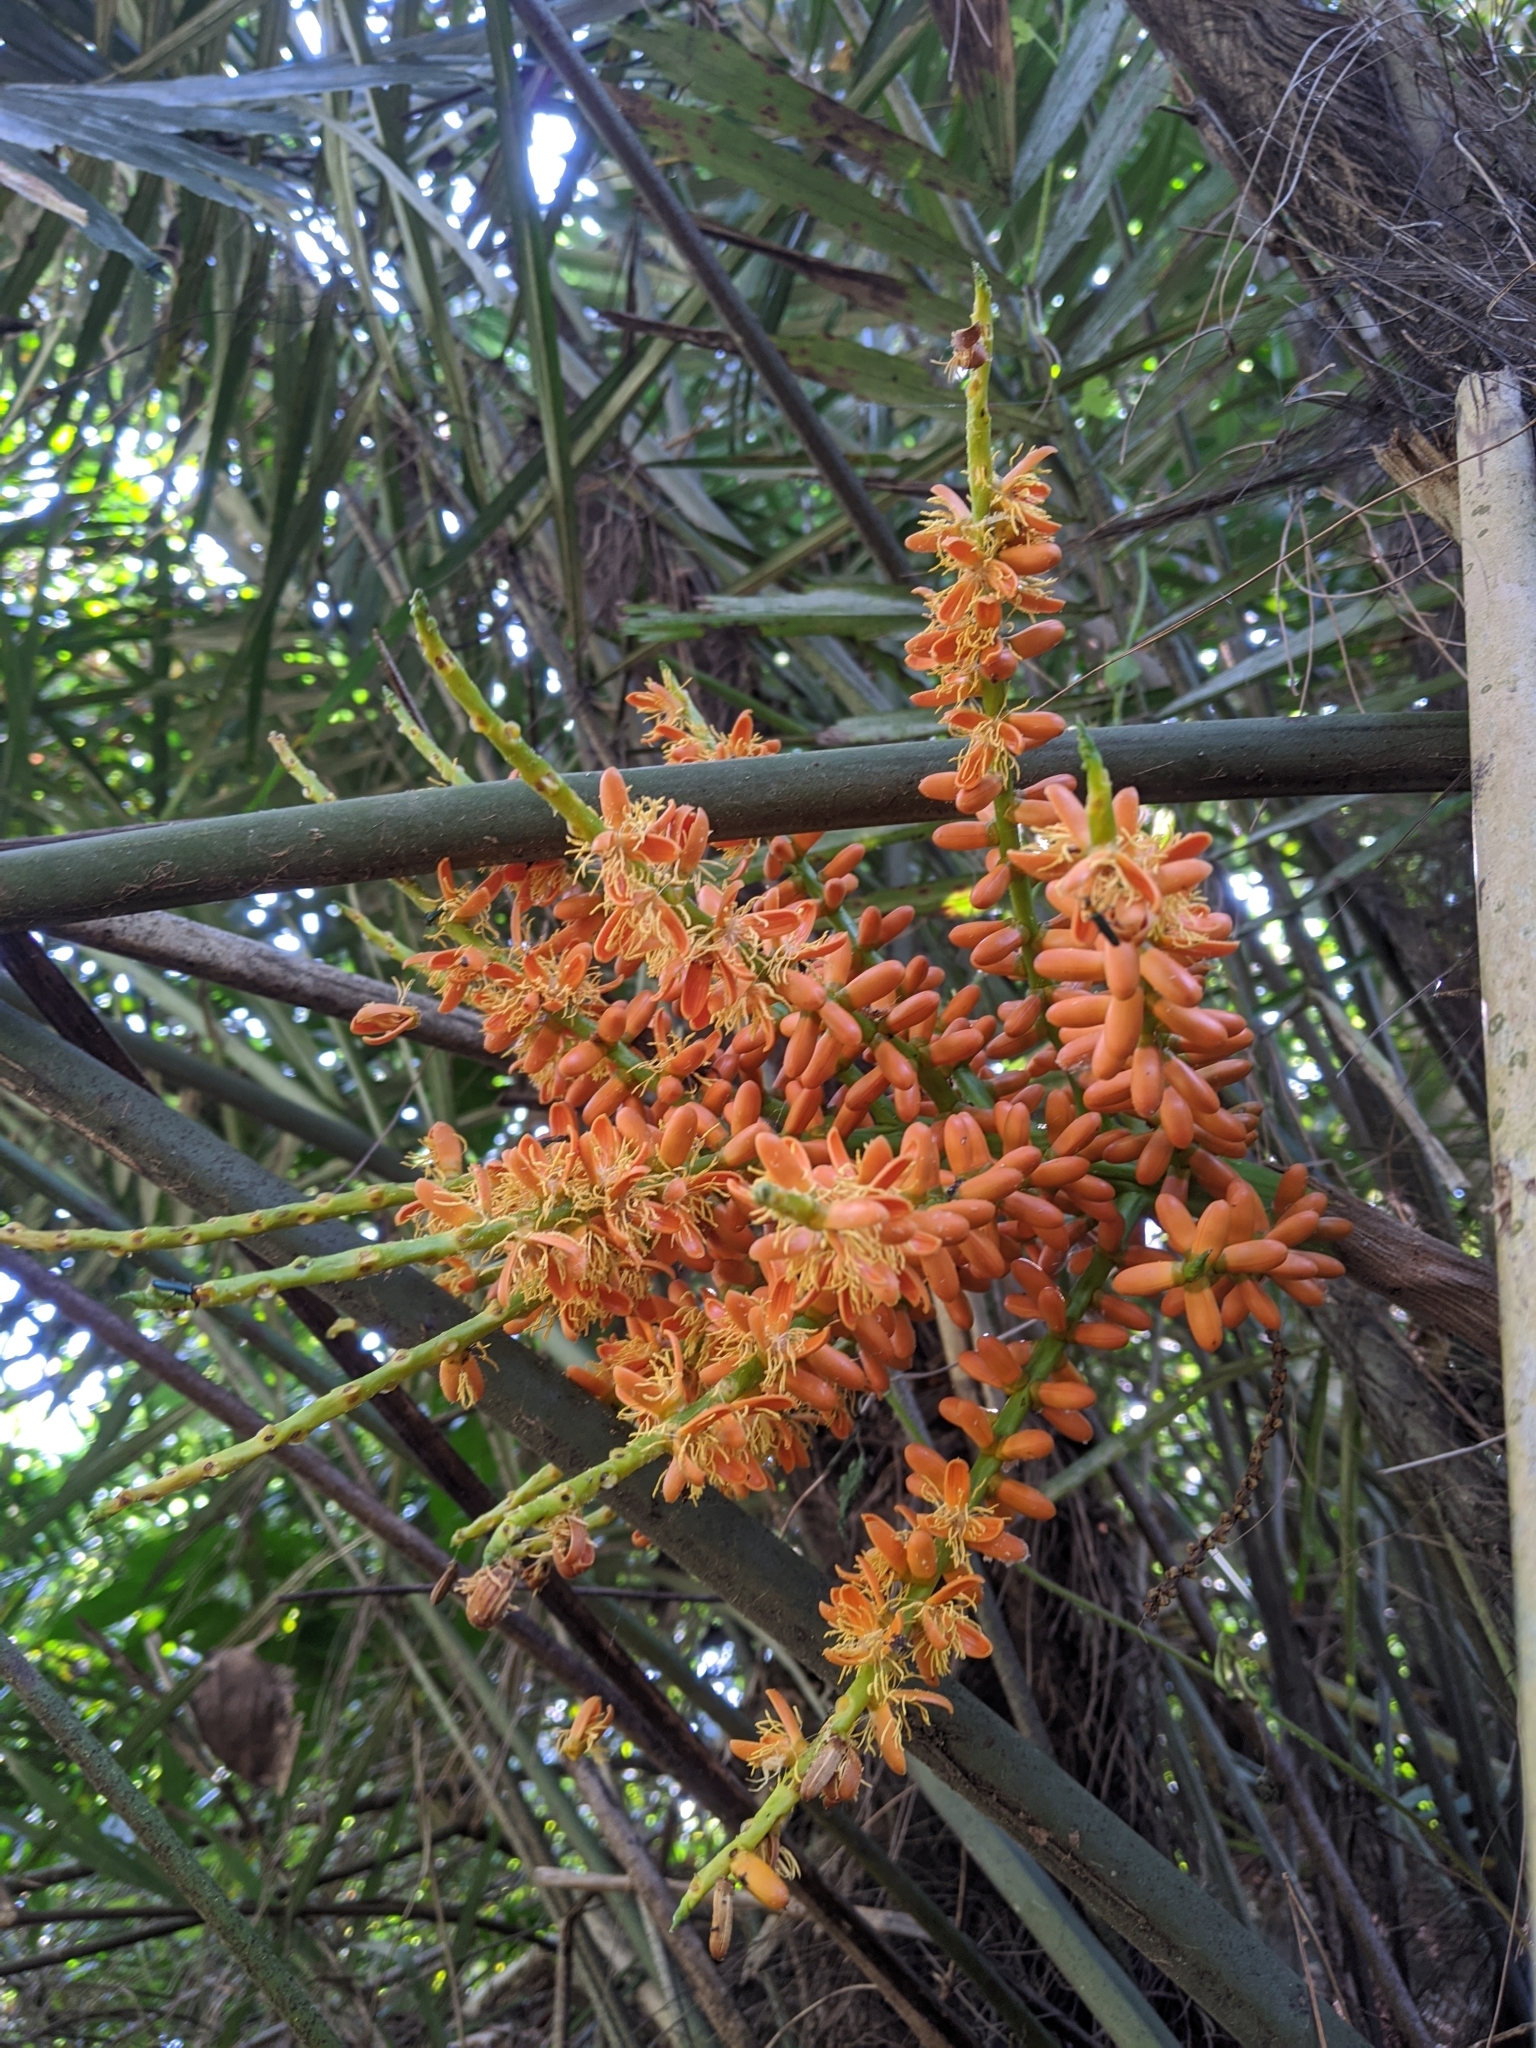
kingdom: Plantae
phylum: Tracheophyta
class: Liliopsida
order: Arecales
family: Arecaceae
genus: Arenga
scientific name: Arenga engleri
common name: Formosan sugar palm
